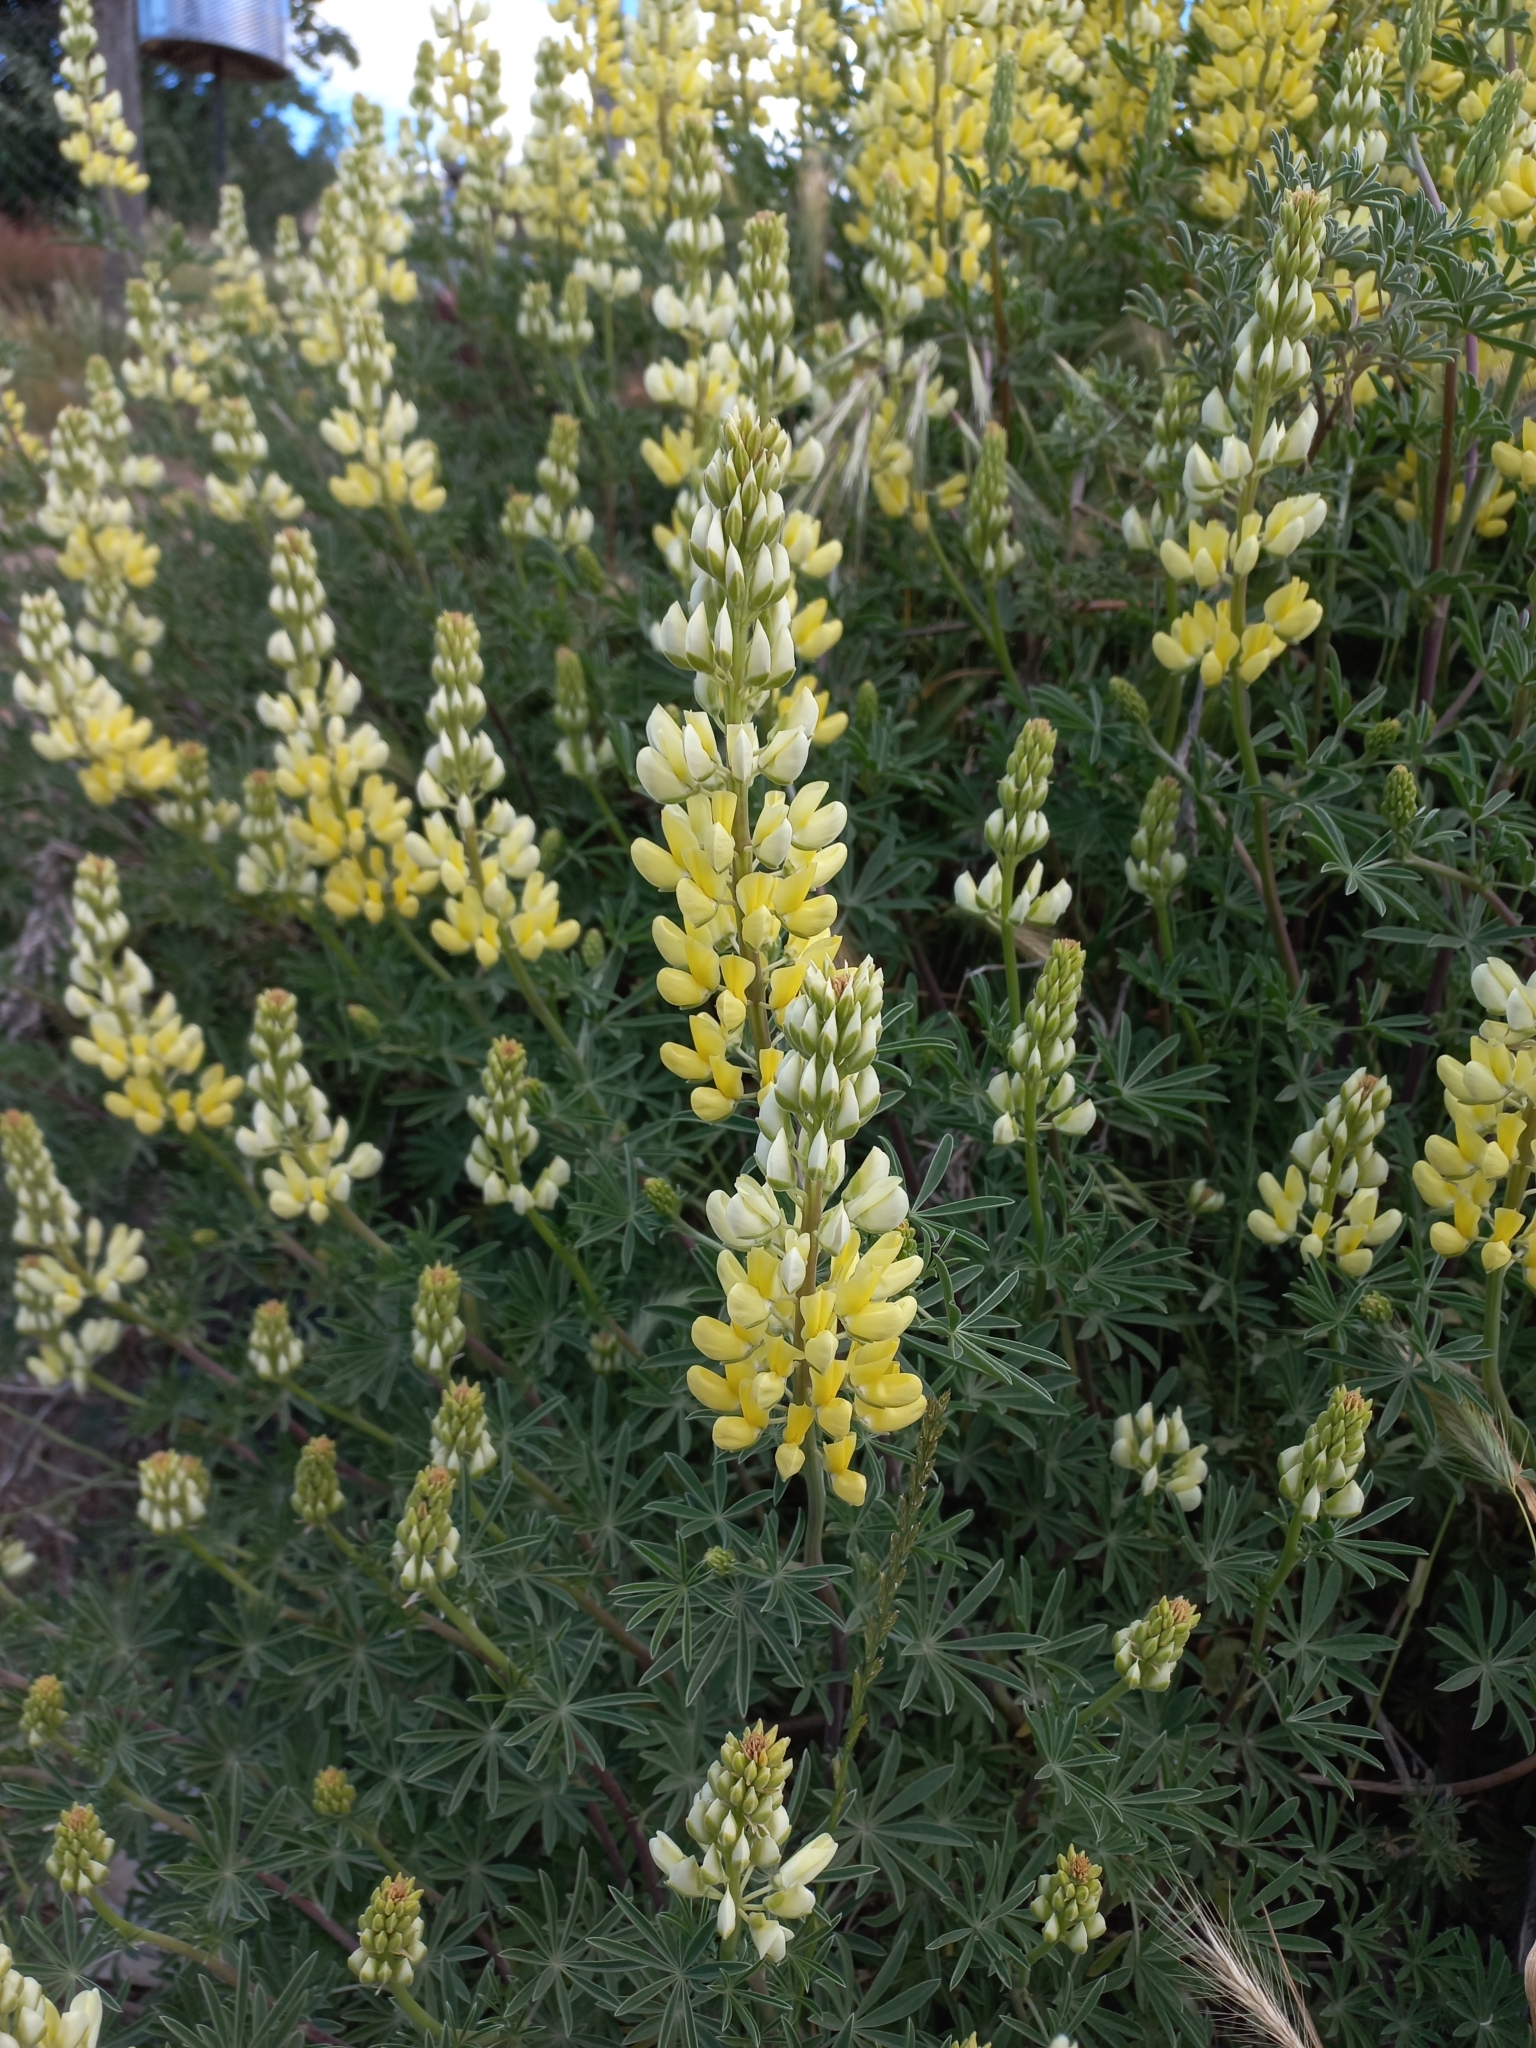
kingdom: Plantae
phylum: Tracheophyta
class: Magnoliopsida
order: Fabales
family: Fabaceae
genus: Lupinus
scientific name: Lupinus arboreus
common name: Yellow bush lupine
